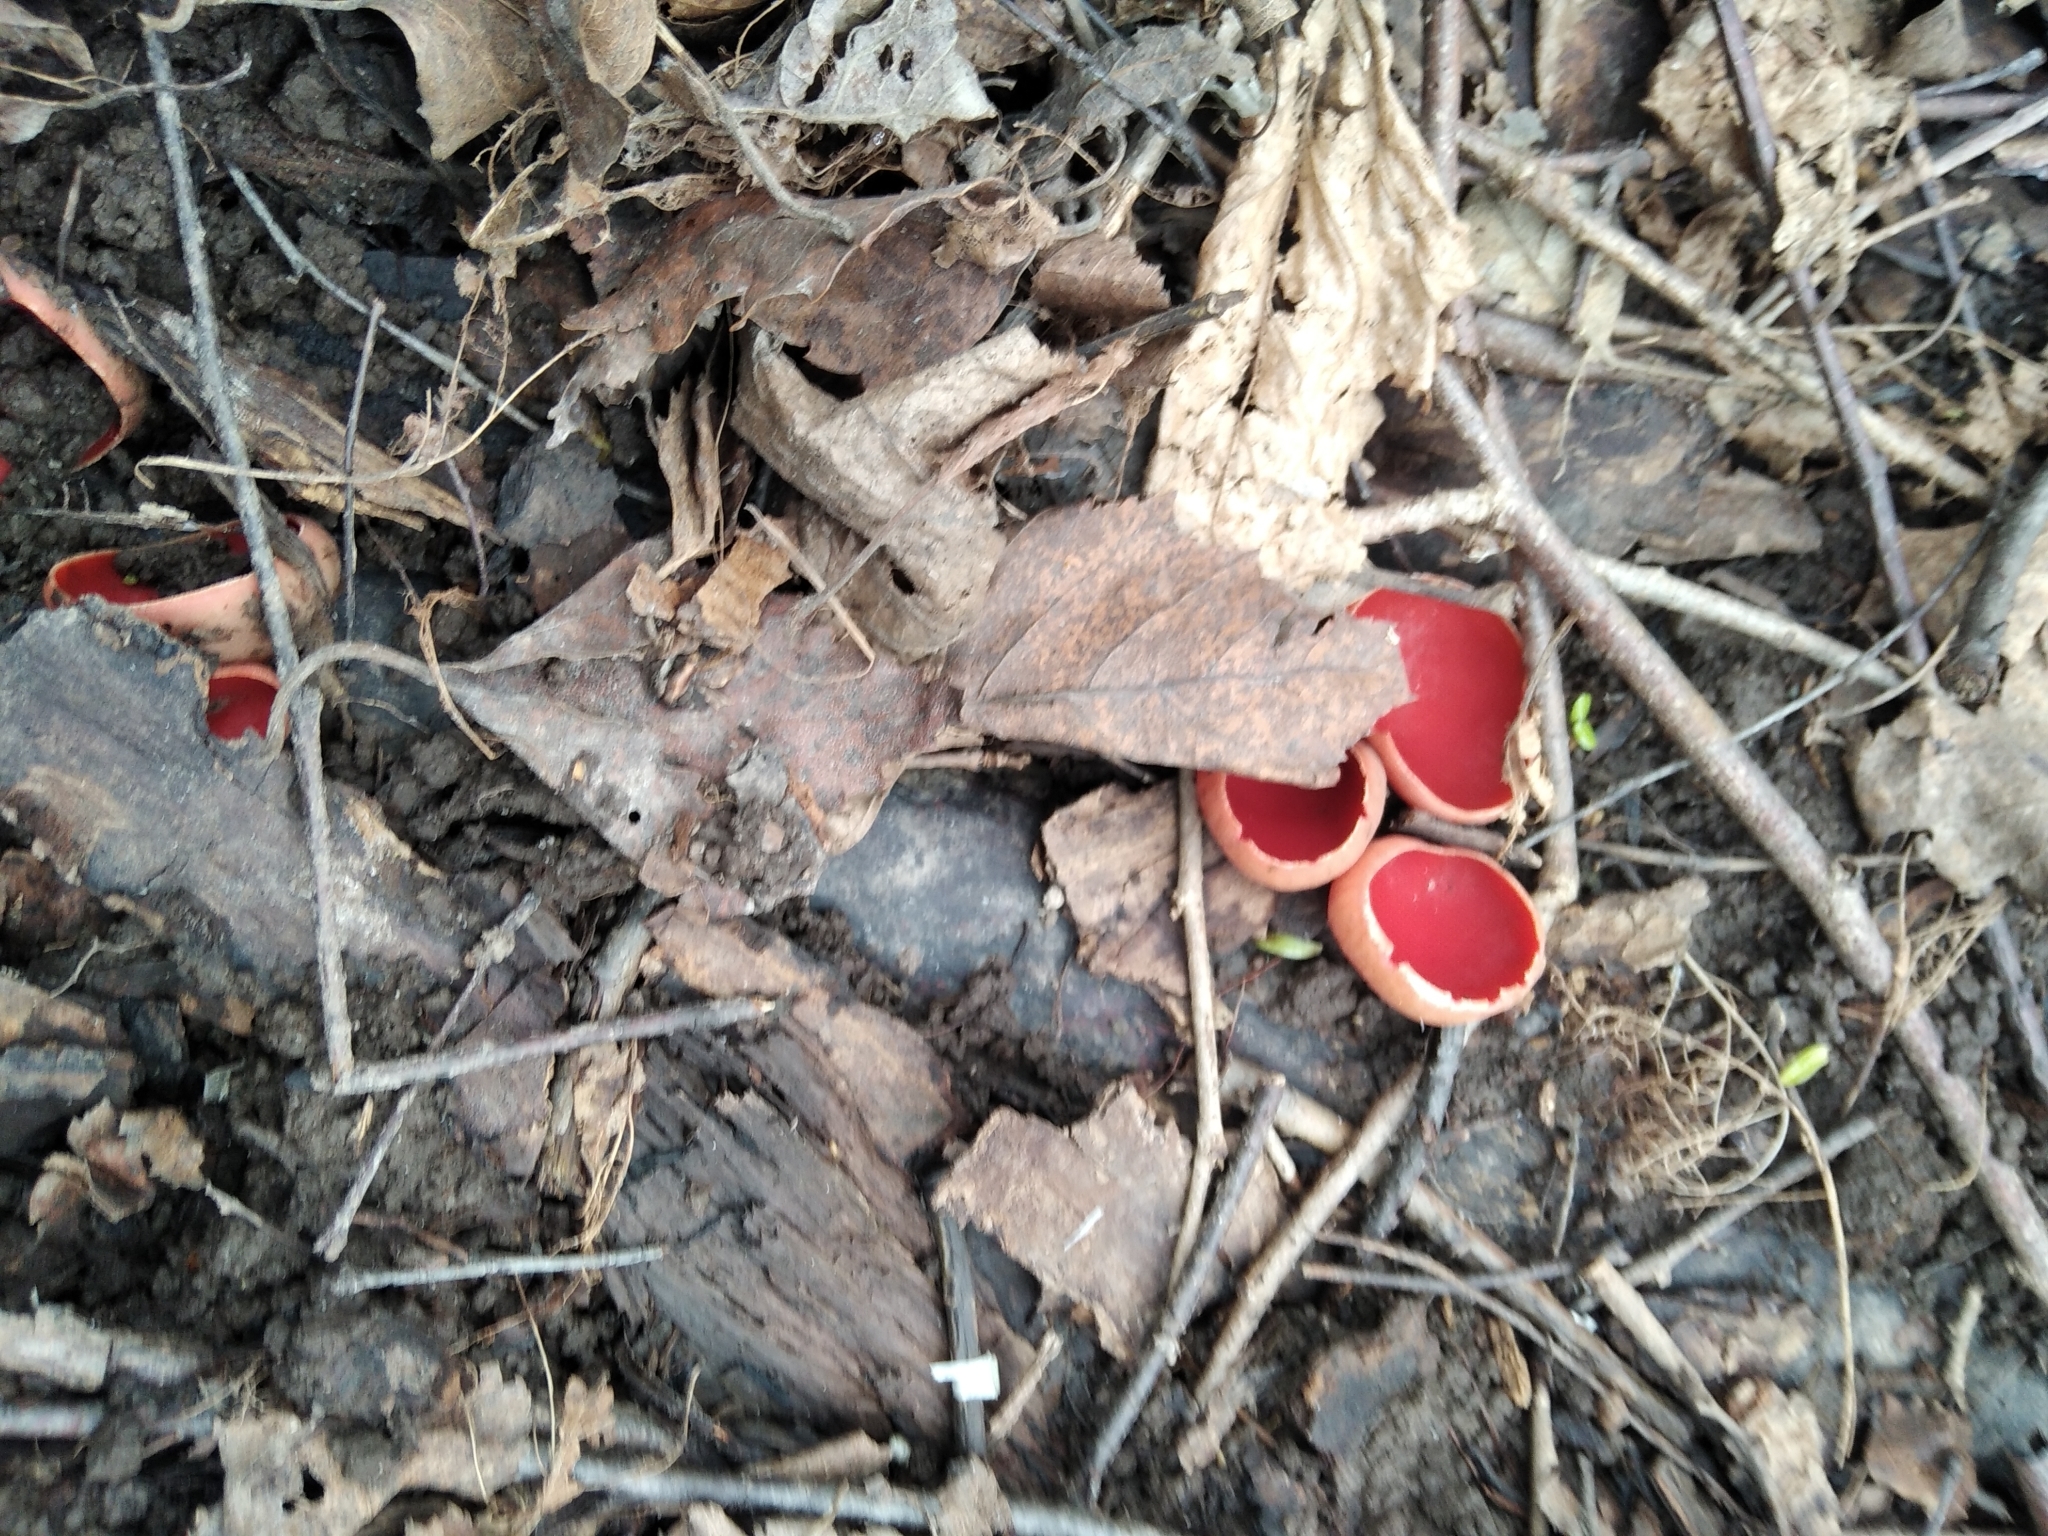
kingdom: Fungi
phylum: Ascomycota
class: Pezizomycetes
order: Pezizales
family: Sarcoscyphaceae
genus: Sarcoscypha
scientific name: Sarcoscypha austriaca
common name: Scarlet elfcup
